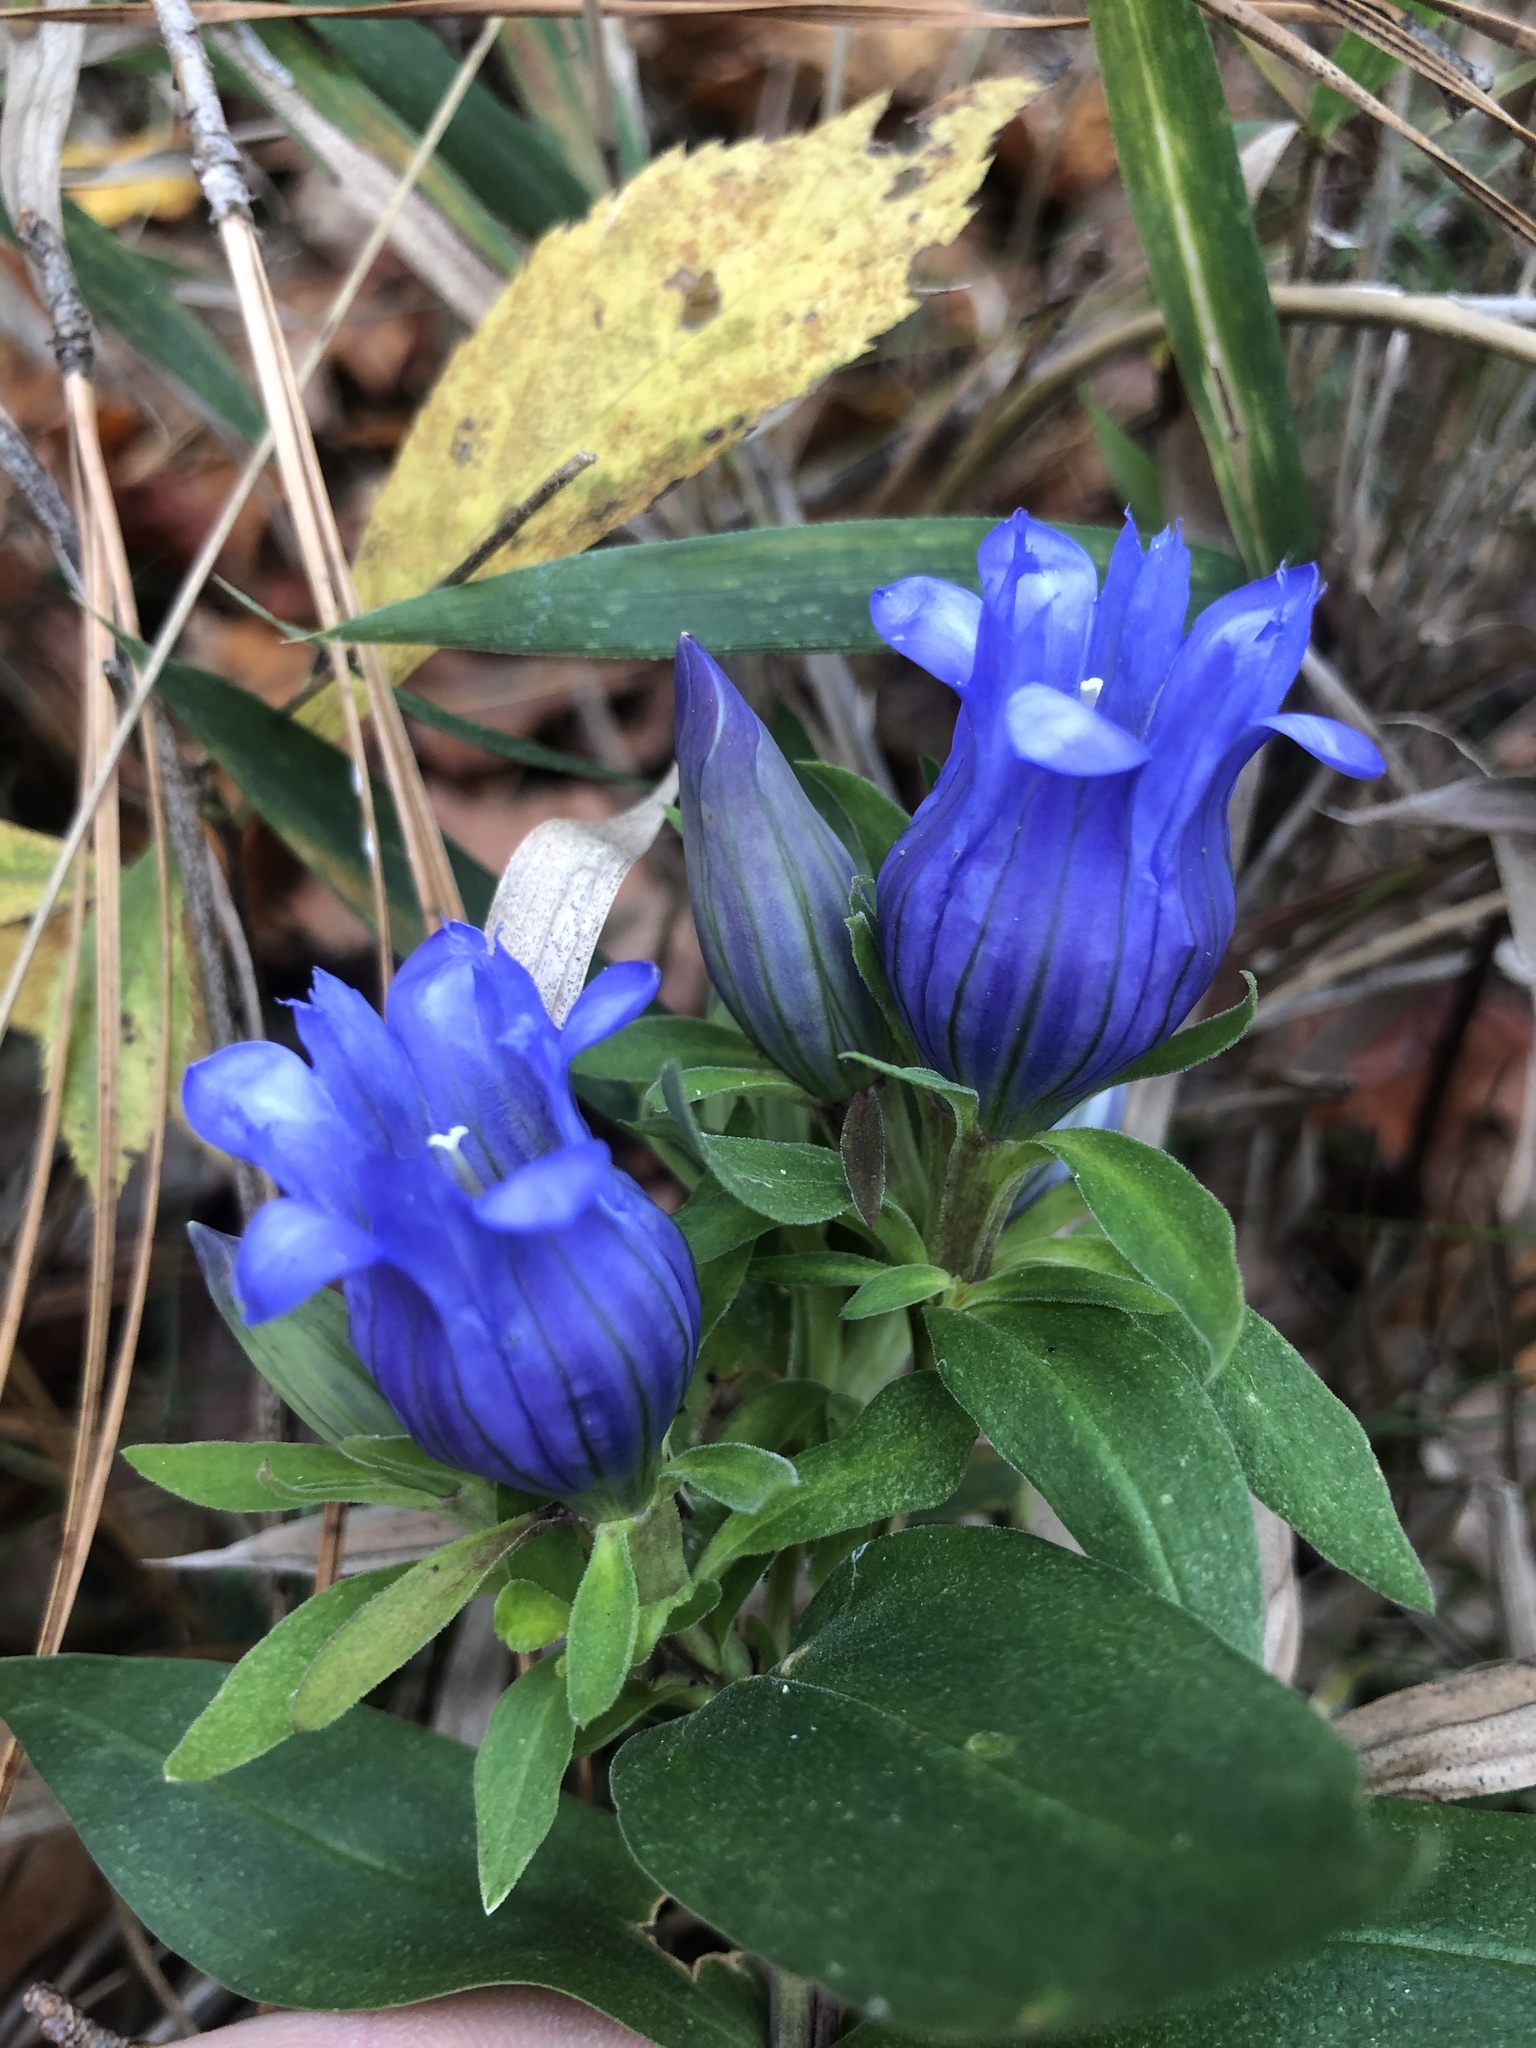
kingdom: Plantae
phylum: Tracheophyta
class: Magnoliopsida
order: Gentianales
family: Gentianaceae
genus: Gentiana
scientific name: Gentiana catesbaei
